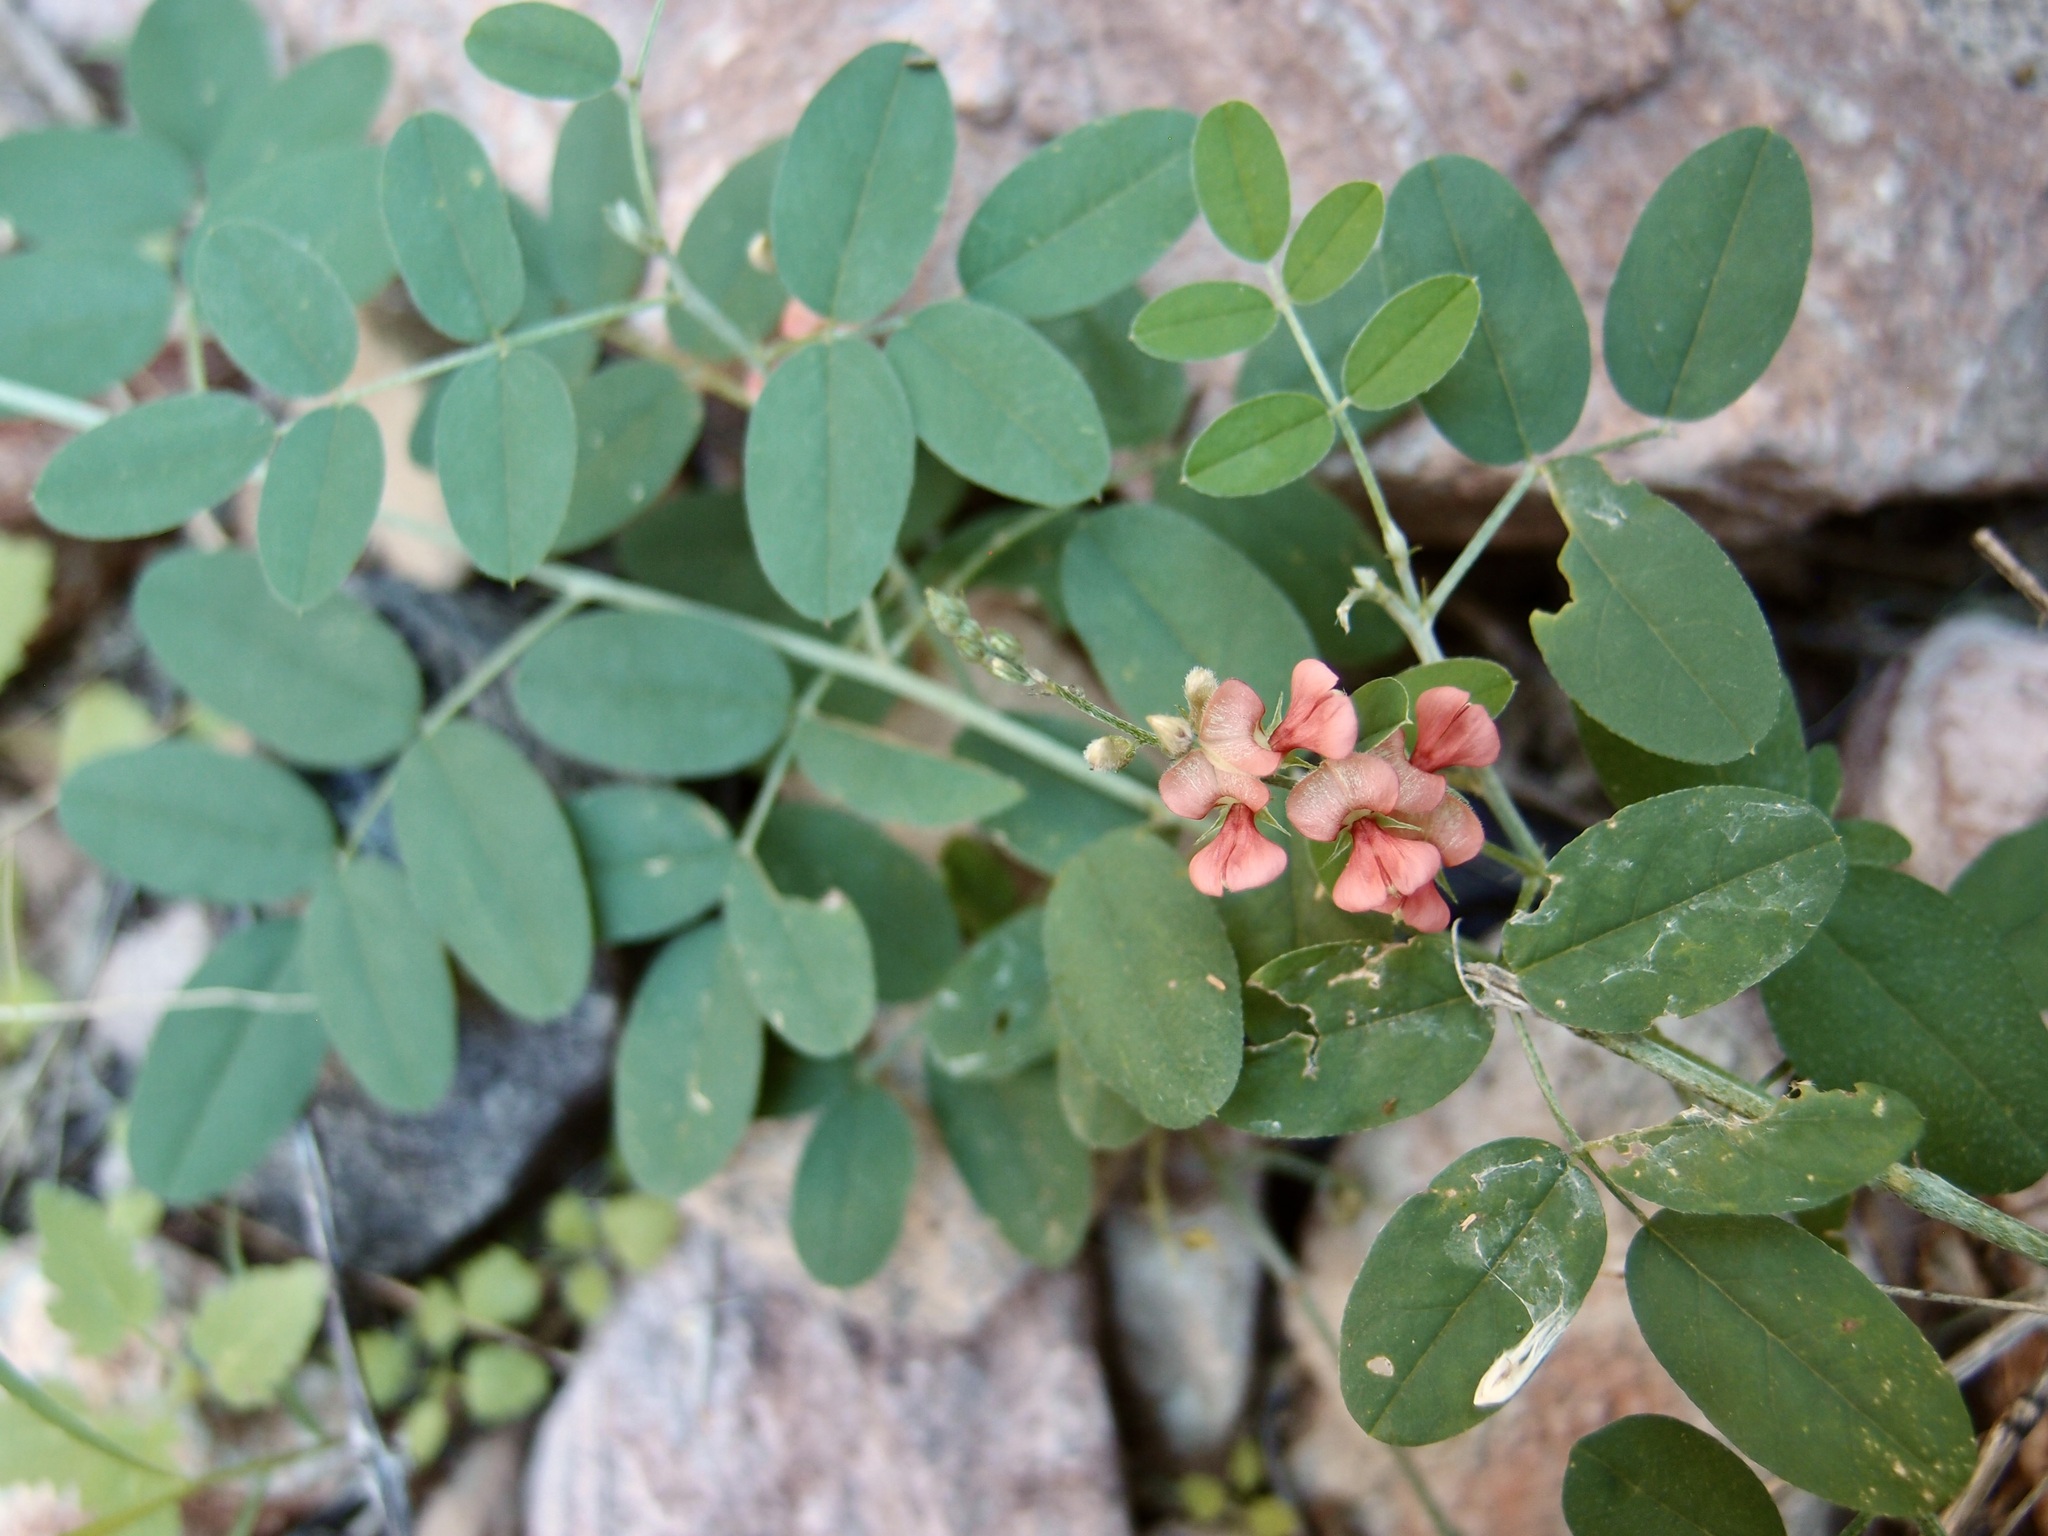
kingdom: Plantae
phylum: Tracheophyta
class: Magnoliopsida
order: Fabales
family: Fabaceae
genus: Indigofera
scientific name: Indigofera subulata
